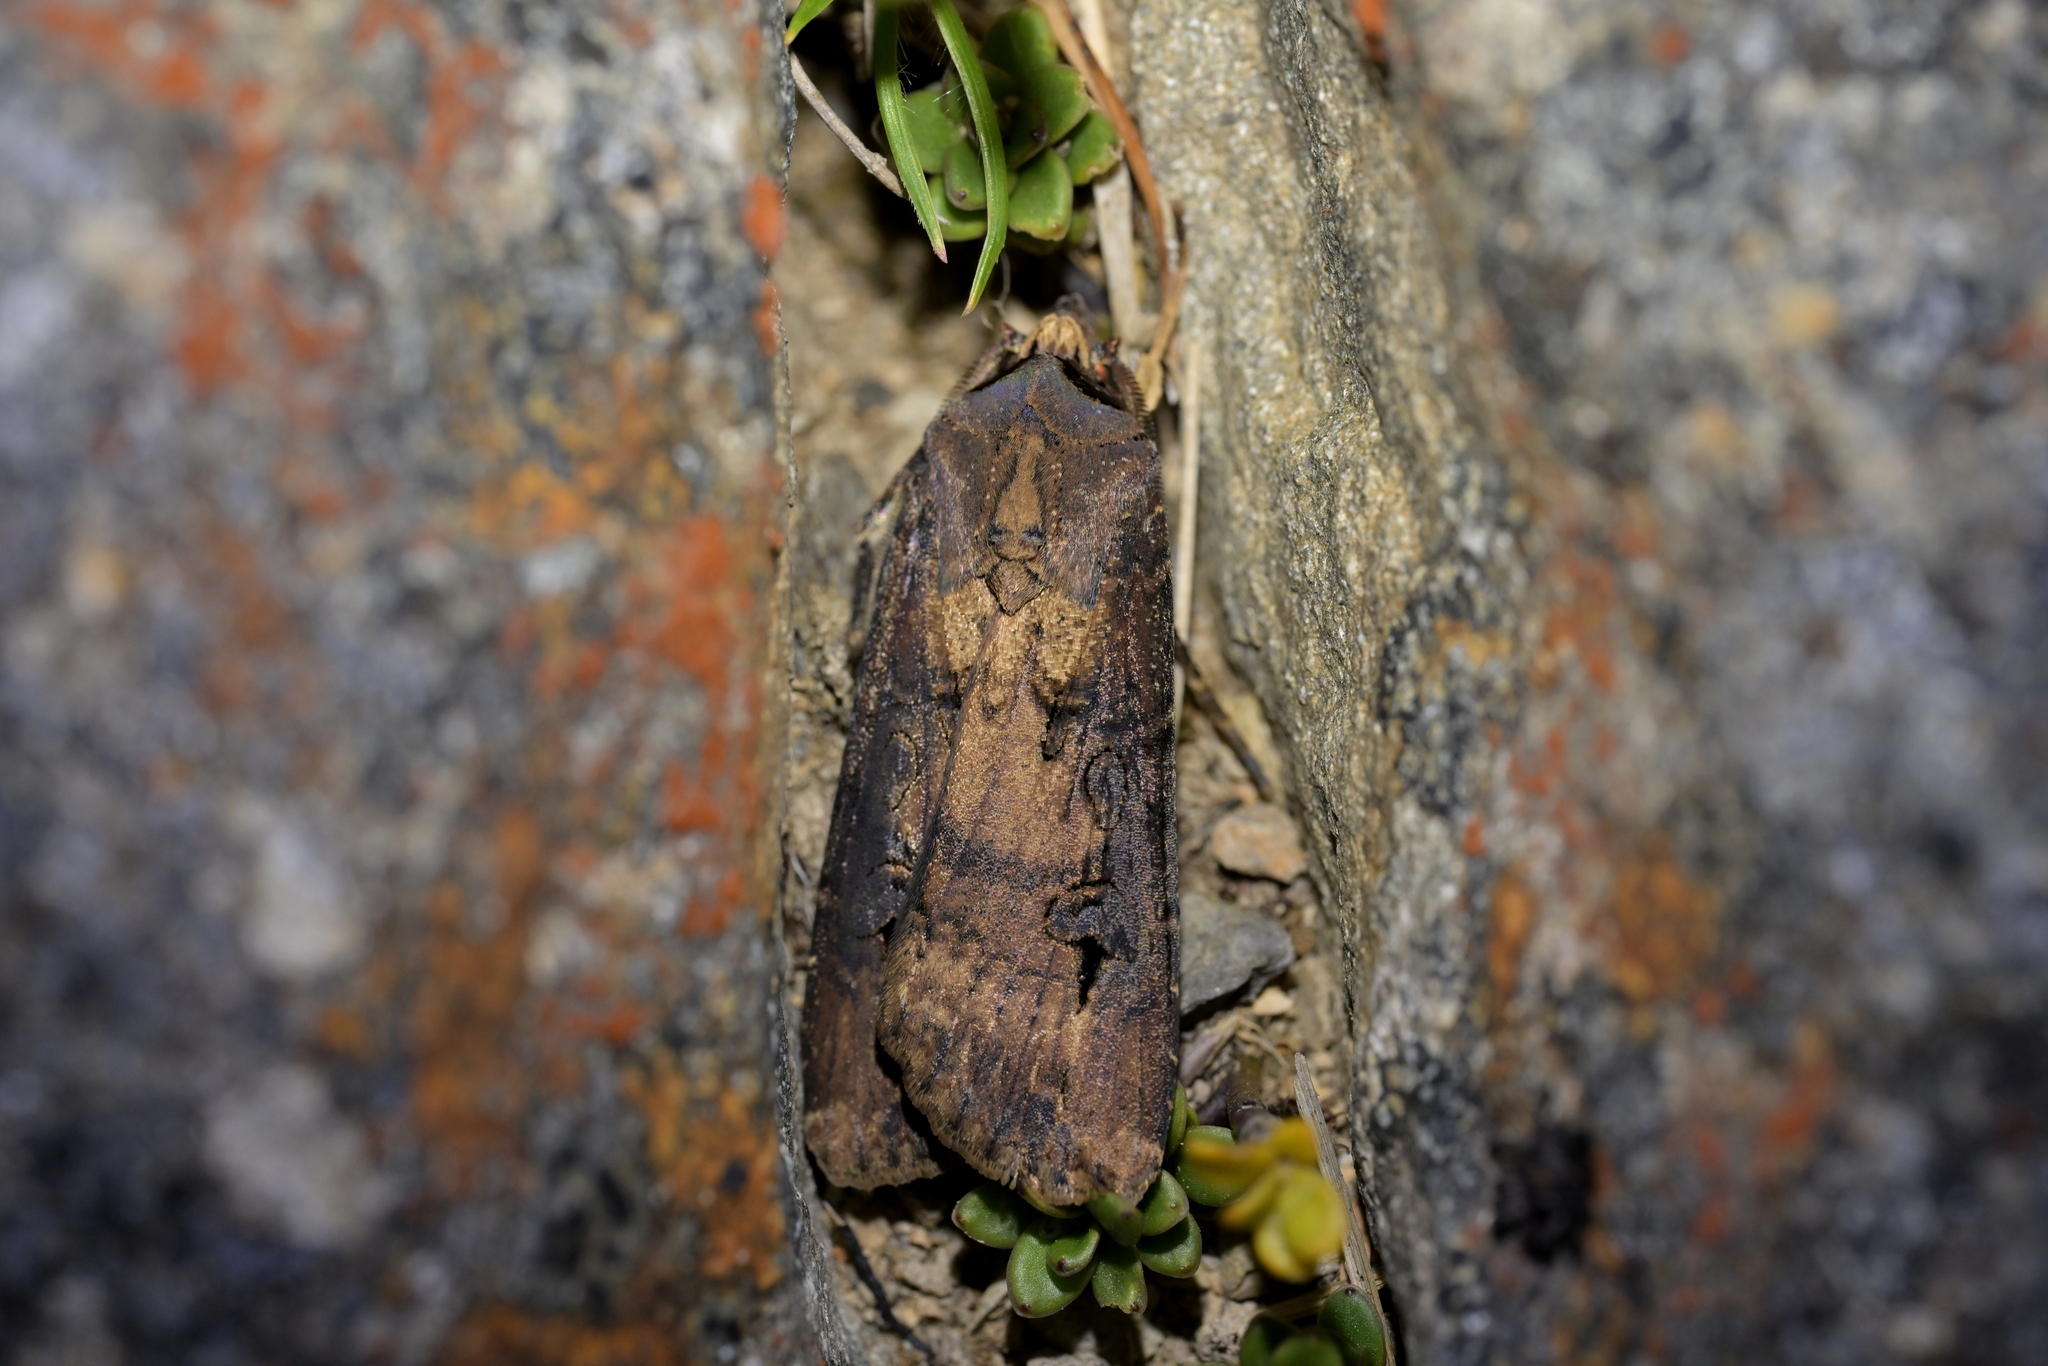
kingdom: Animalia
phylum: Arthropoda
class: Insecta
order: Lepidoptera
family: Noctuidae
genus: Agrotis
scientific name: Agrotis ipsilon
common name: Dark sword-grass
